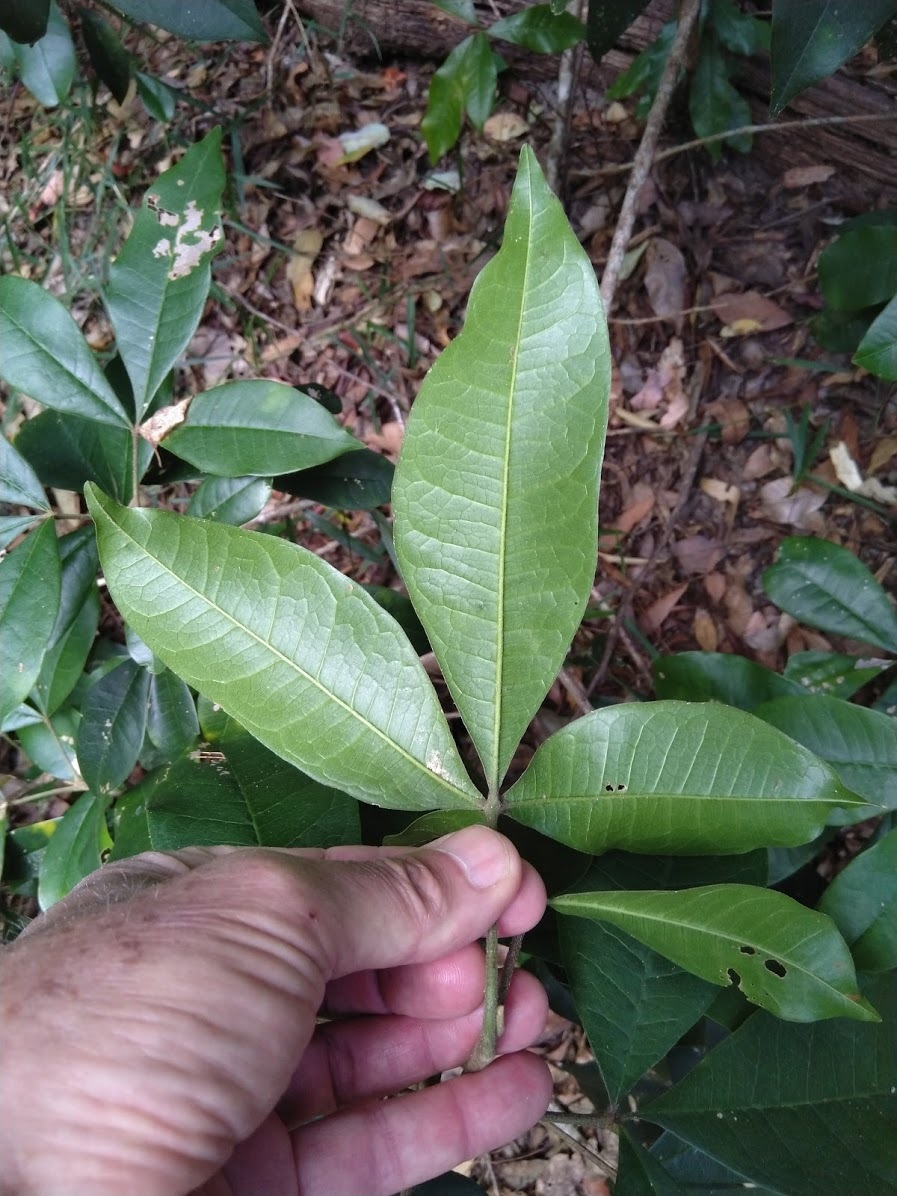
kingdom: Plantae
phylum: Tracheophyta
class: Magnoliopsida
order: Sapindales
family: Rutaceae
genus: Acronychia
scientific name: Acronychia pubescens
